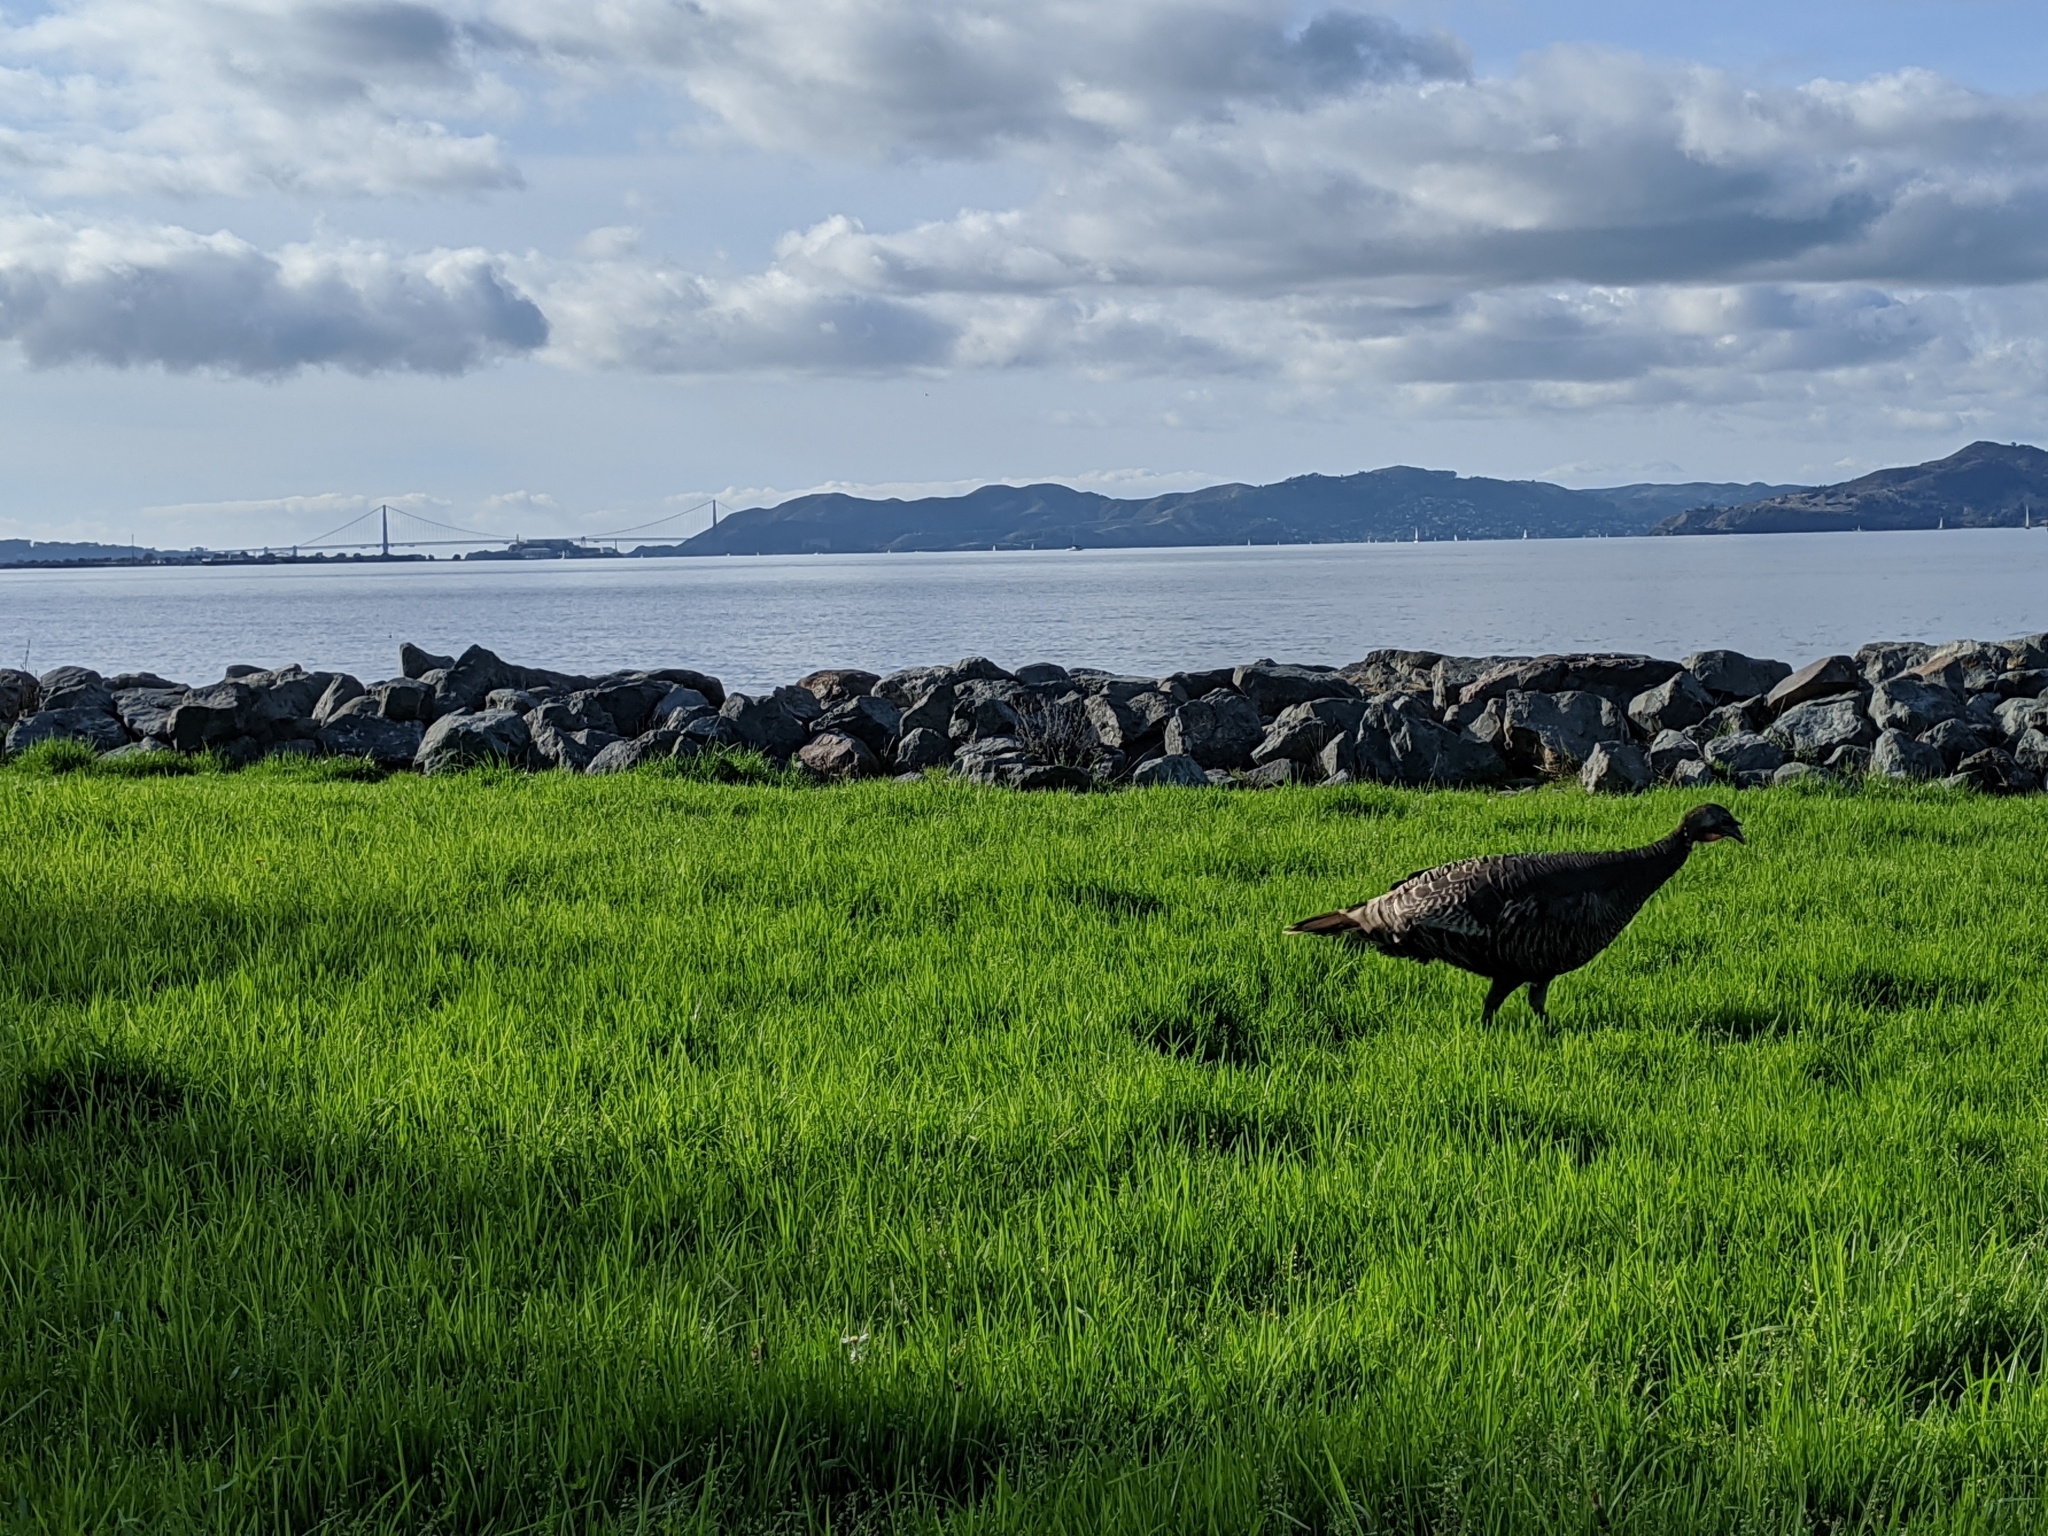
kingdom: Animalia
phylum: Chordata
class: Aves
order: Galliformes
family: Phasianidae
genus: Meleagris
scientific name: Meleagris gallopavo
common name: Wild turkey
